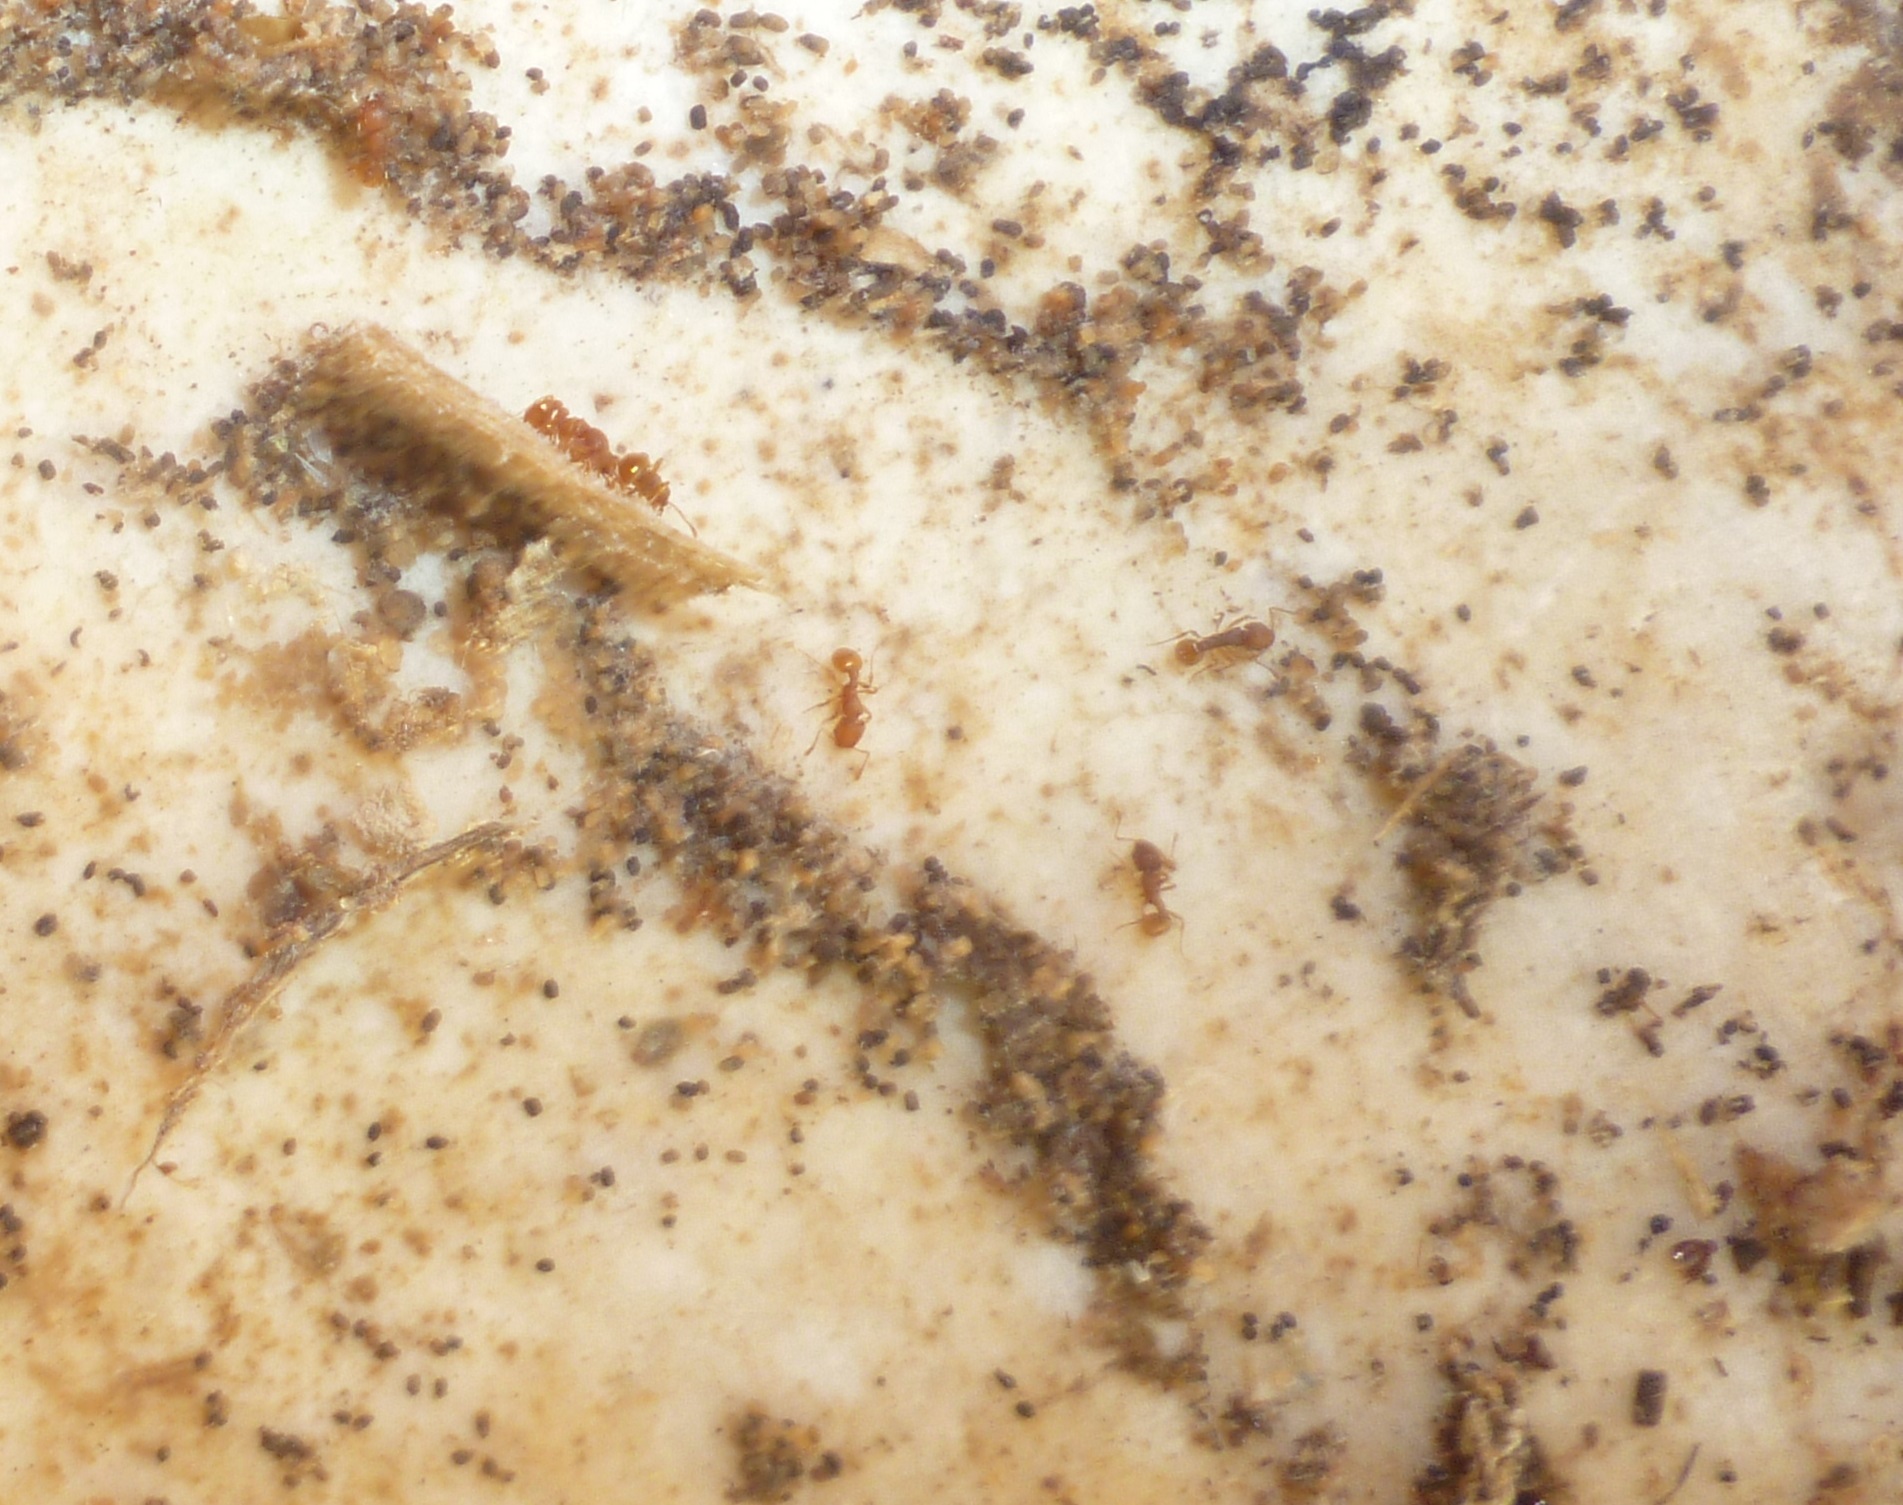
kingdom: Animalia
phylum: Arthropoda
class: Insecta
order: Hymenoptera
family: Formicidae
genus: Wasmannia
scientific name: Wasmannia auropunctata
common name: Little fire ant
